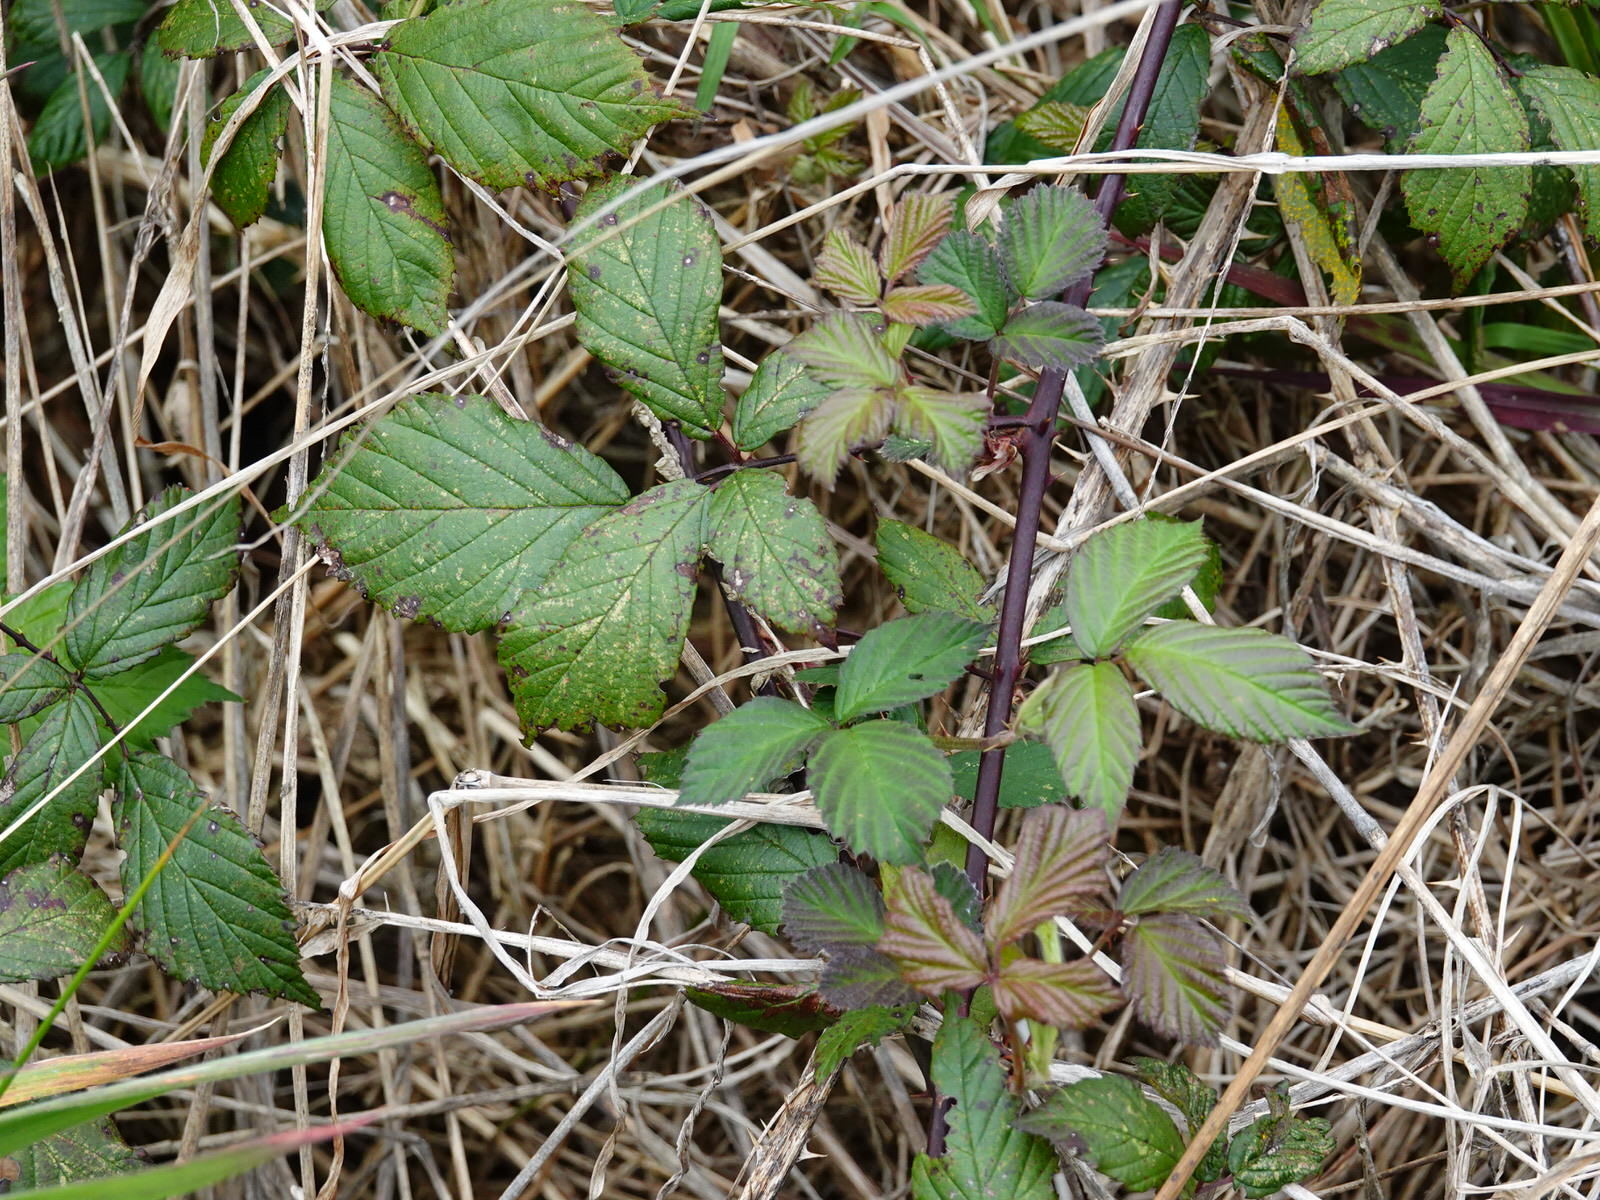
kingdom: Plantae
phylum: Tracheophyta
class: Magnoliopsida
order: Rosales
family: Rosaceae
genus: Rubus
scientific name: Rubus
